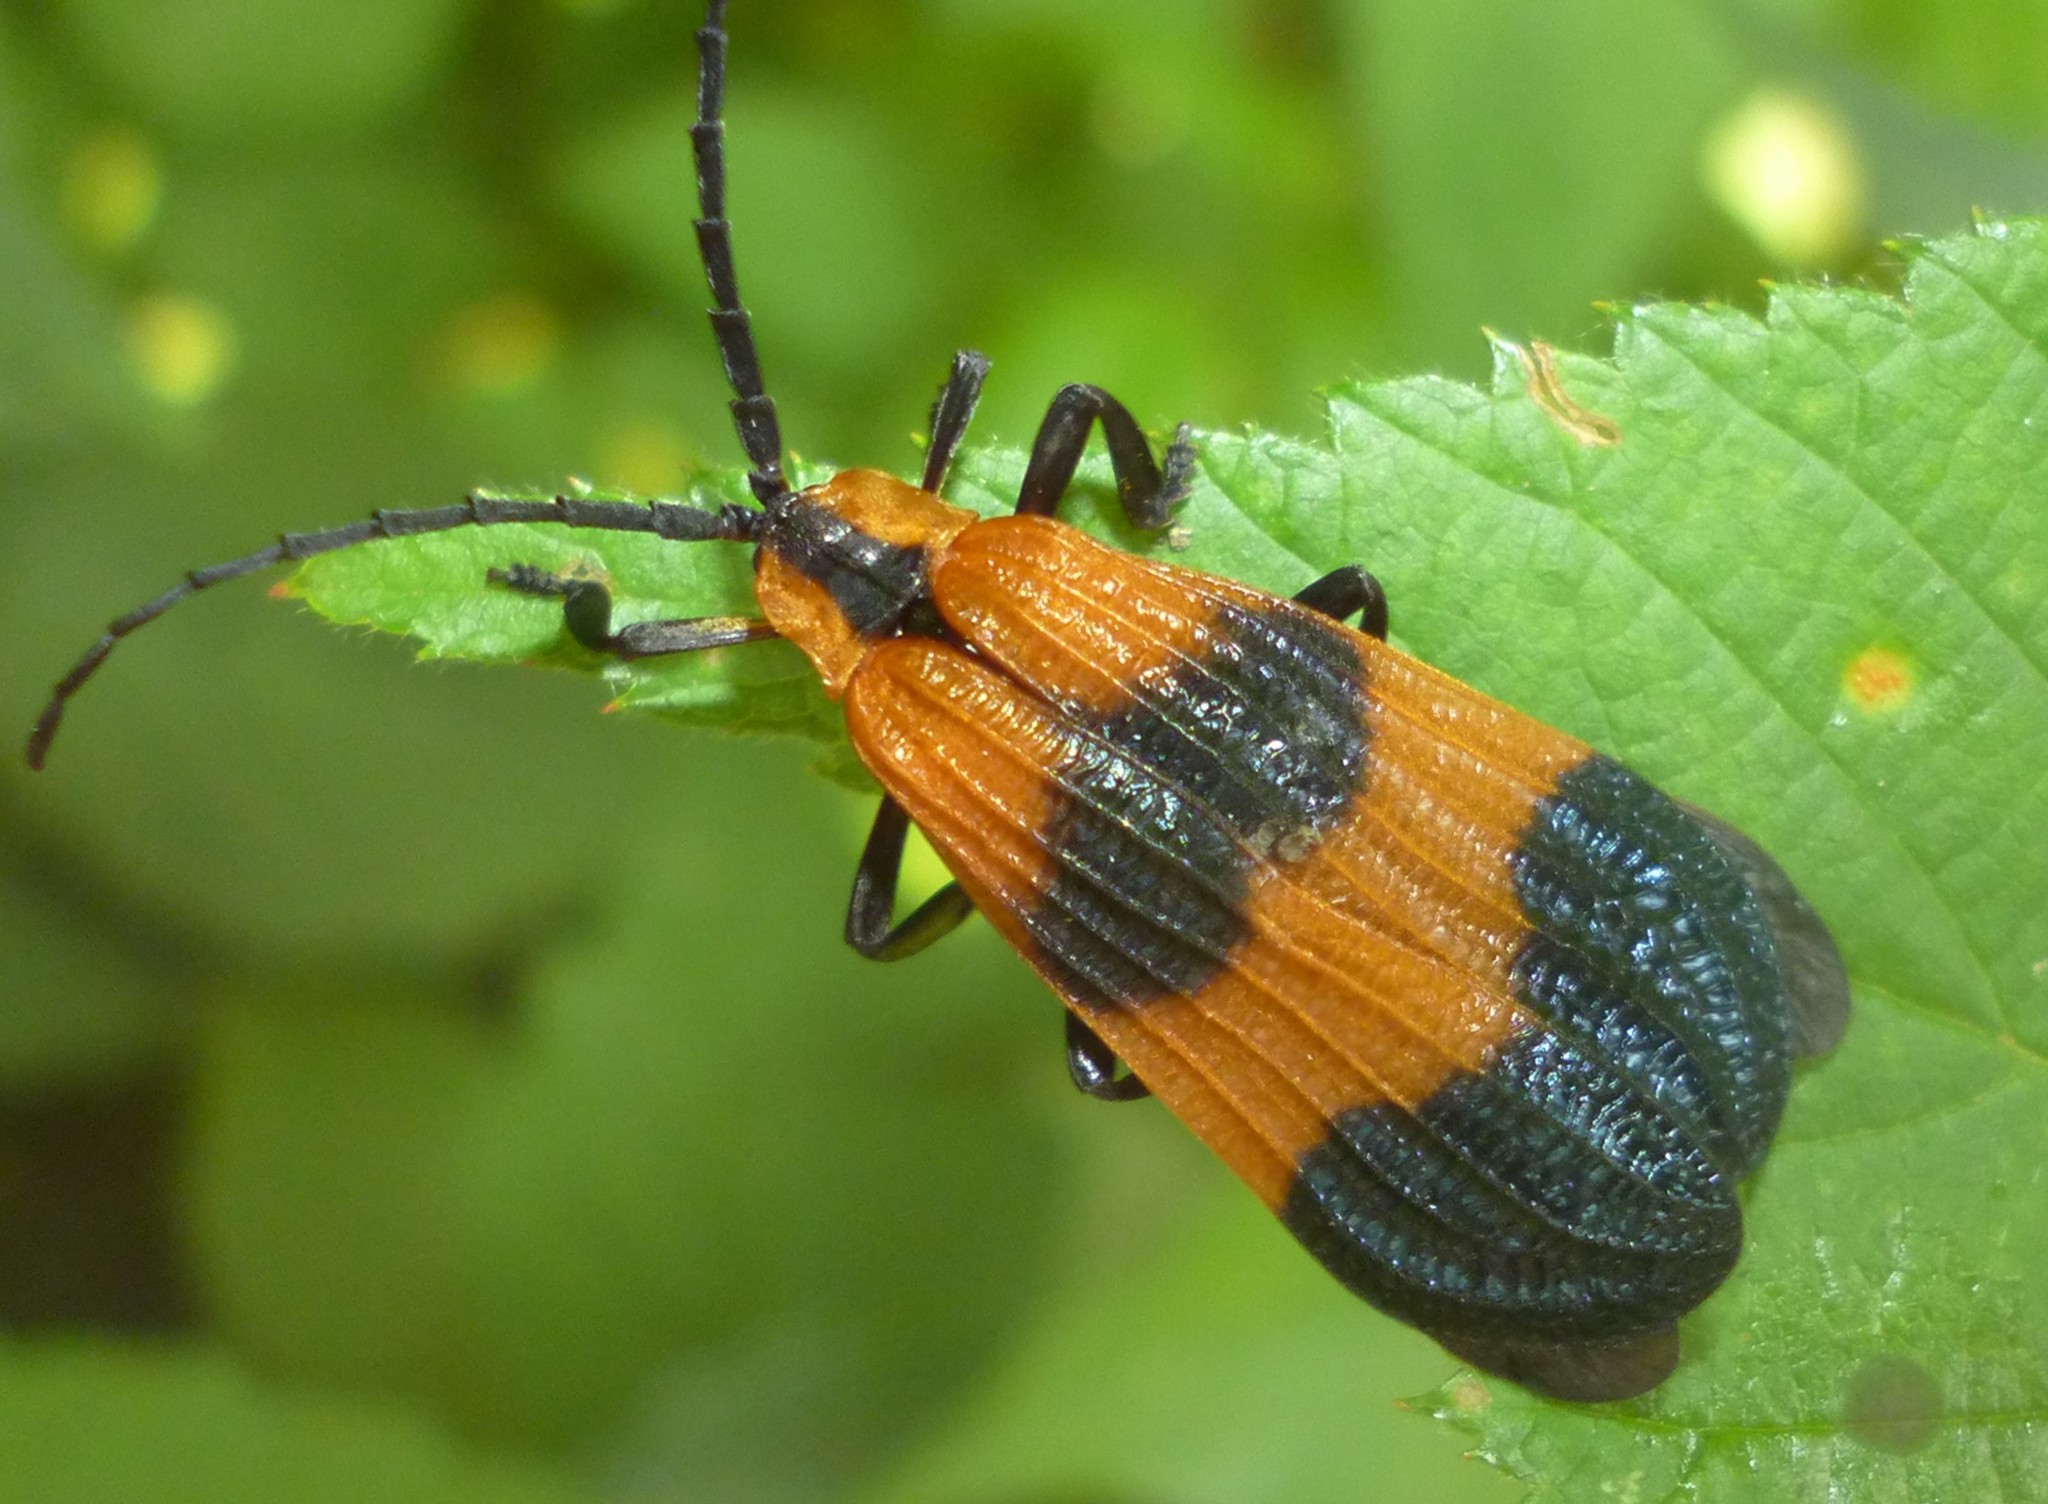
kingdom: Animalia
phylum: Arthropoda
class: Insecta
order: Coleoptera
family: Lycidae
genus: Calopteron
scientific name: Calopteron terminale
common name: End band net-winged beetle
